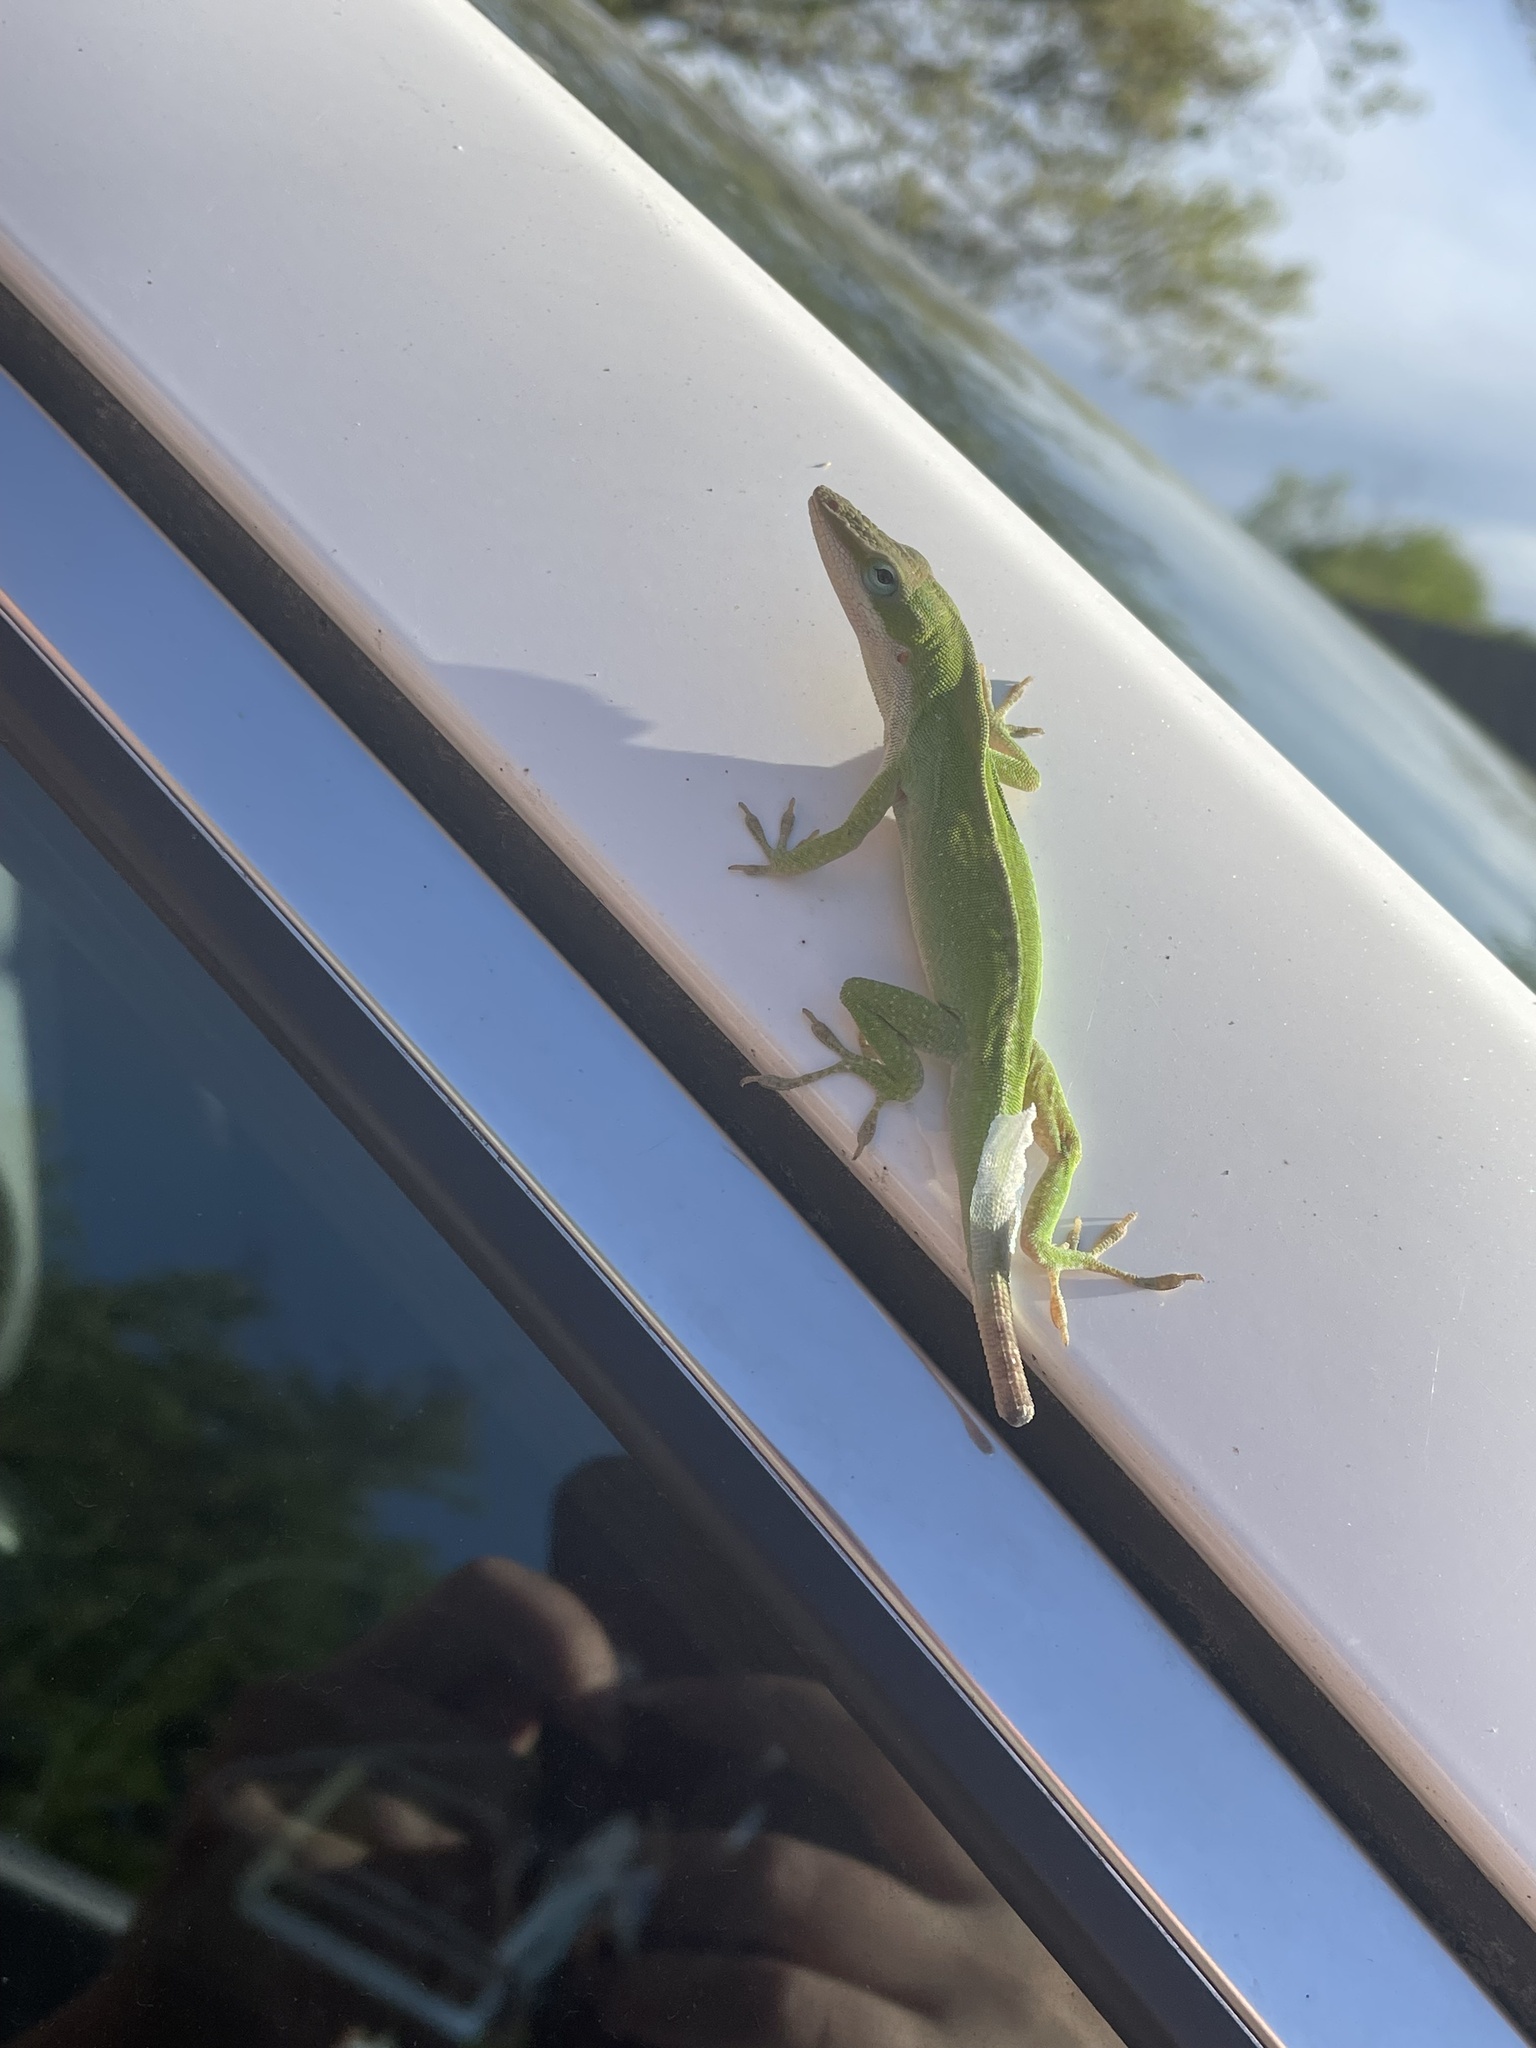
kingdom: Animalia
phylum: Chordata
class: Squamata
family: Dactyloidae
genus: Anolis
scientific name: Anolis carolinensis
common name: Green anole
